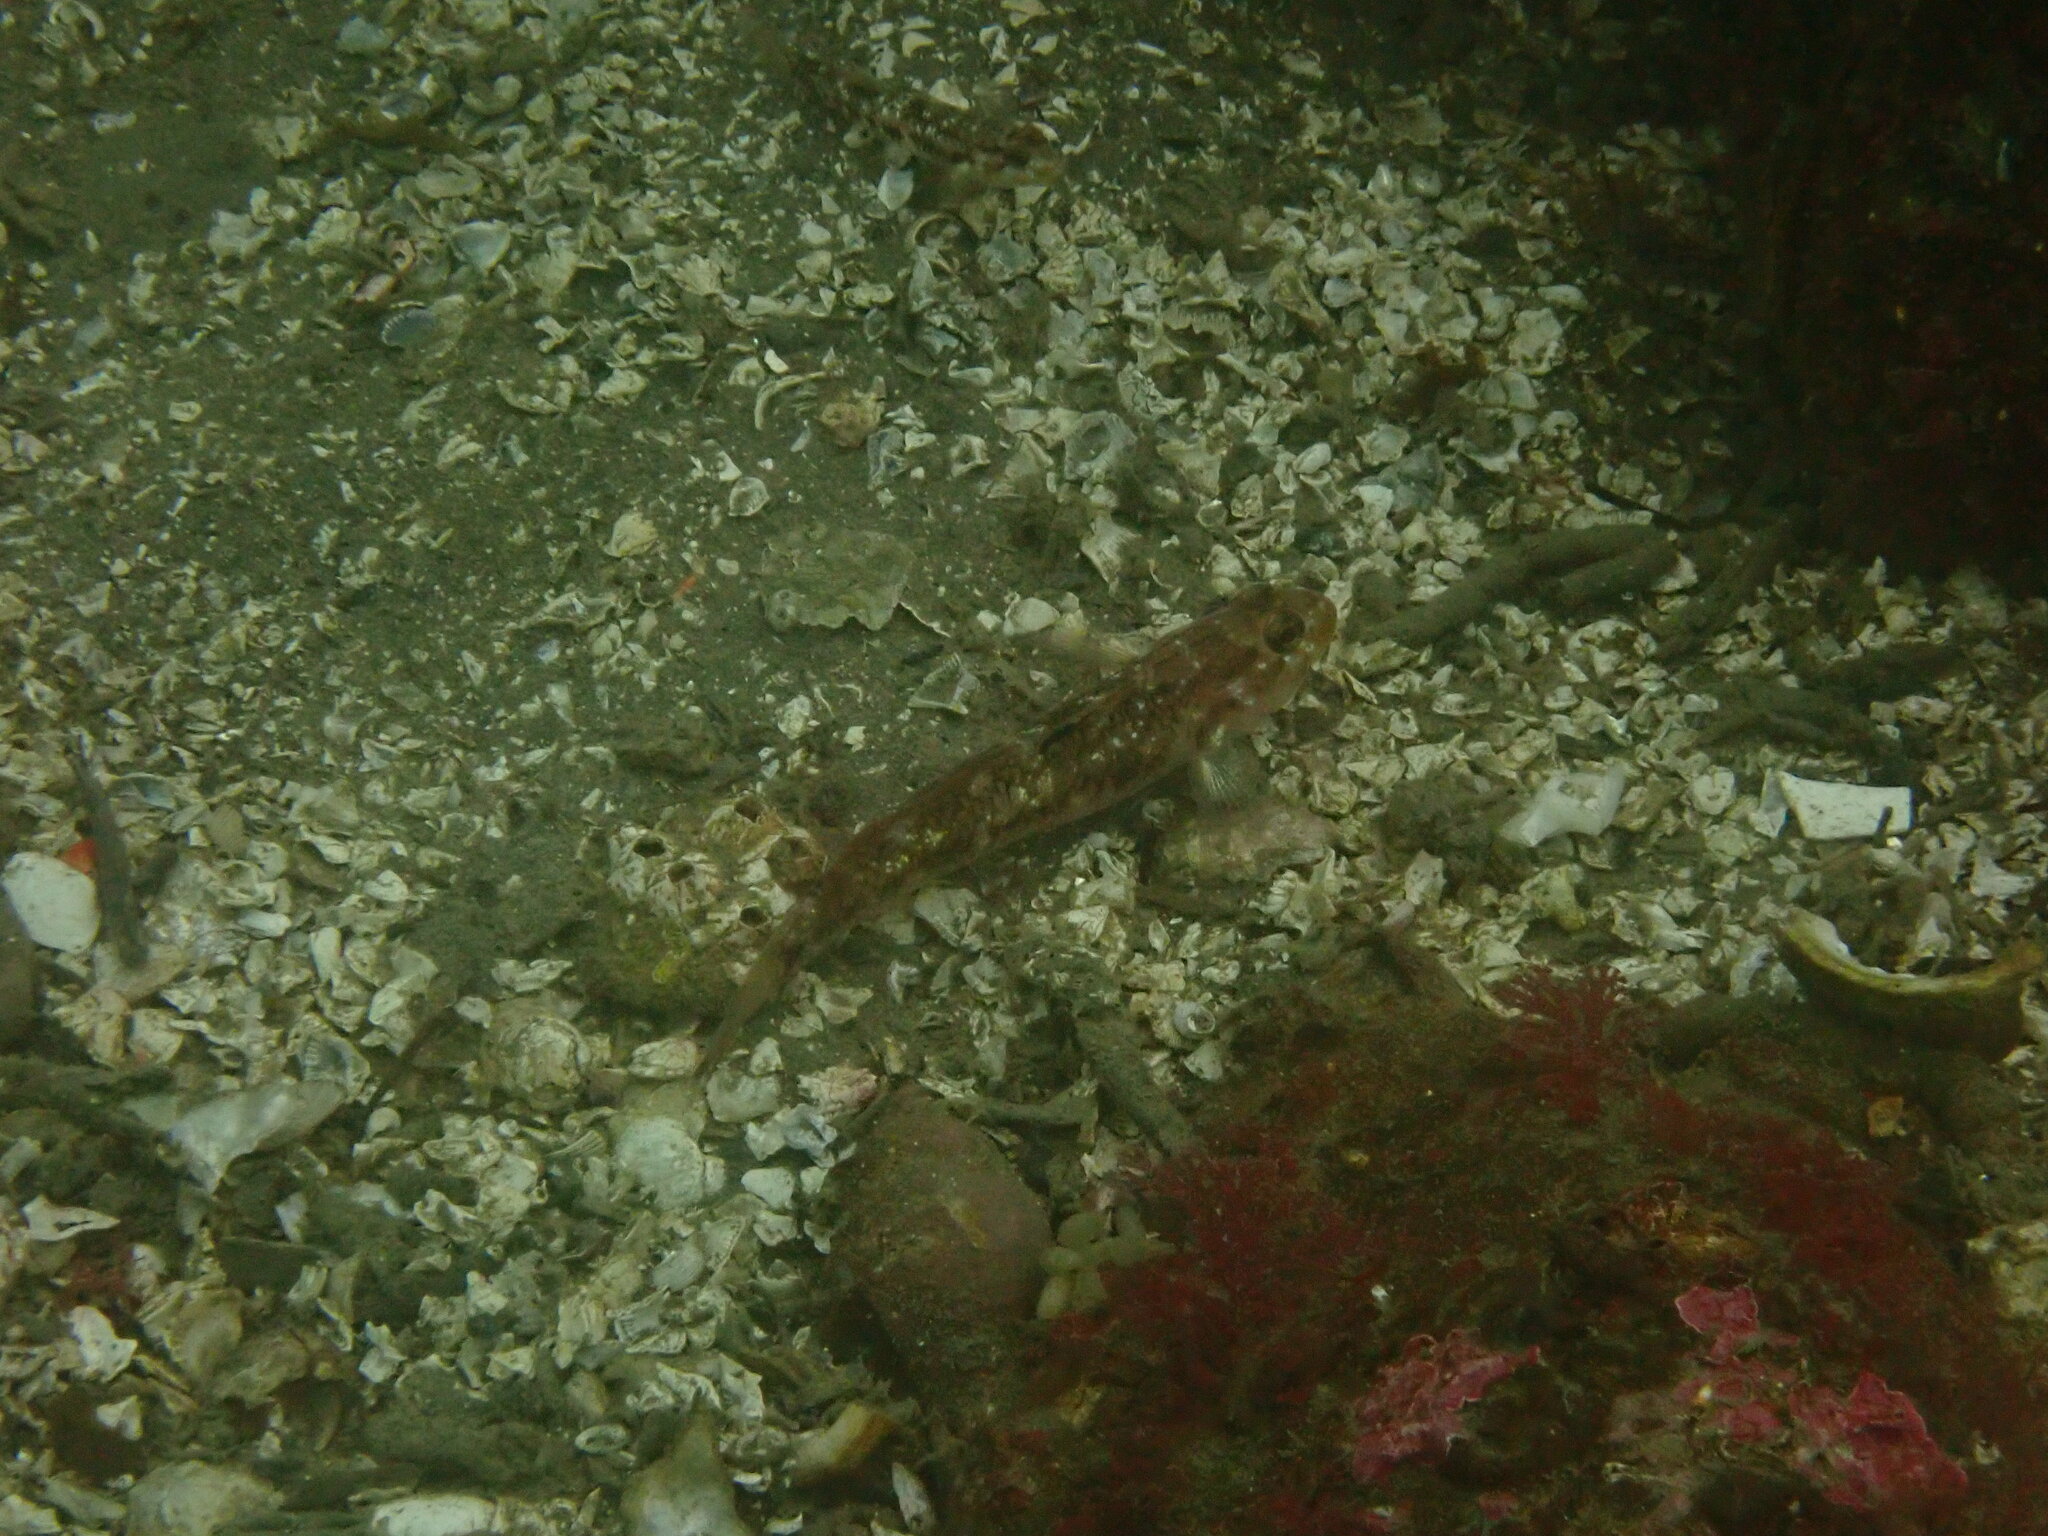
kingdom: Animalia
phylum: Chordata
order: Perciformes
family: Gobiidae
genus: Rhinogobiops
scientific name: Rhinogobiops nicholsii
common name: Blackeye goby
